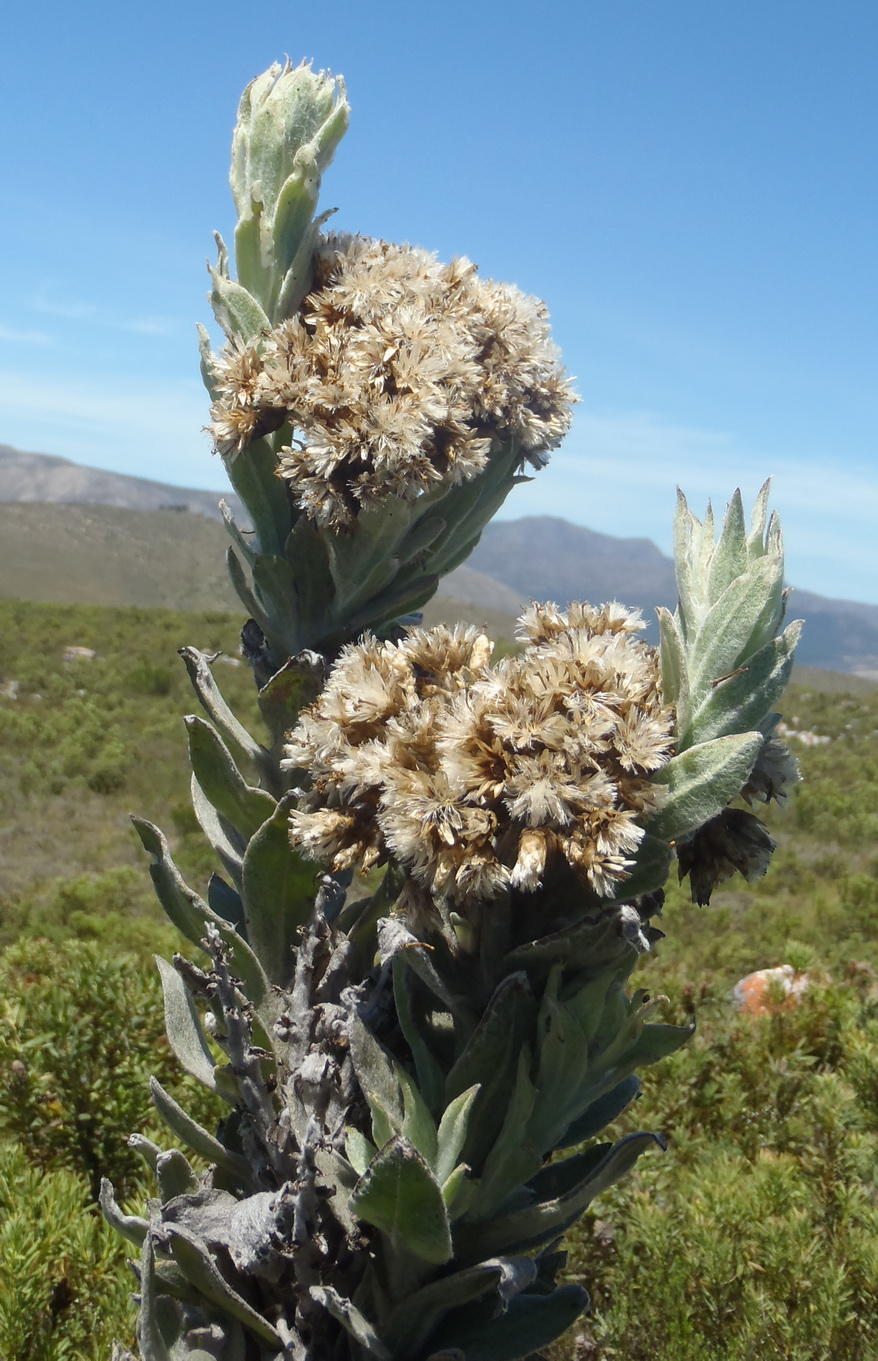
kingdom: Plantae
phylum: Tracheophyta
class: Magnoliopsida
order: Asterales
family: Asteraceae
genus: Syncarpha
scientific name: Syncarpha milleflora
